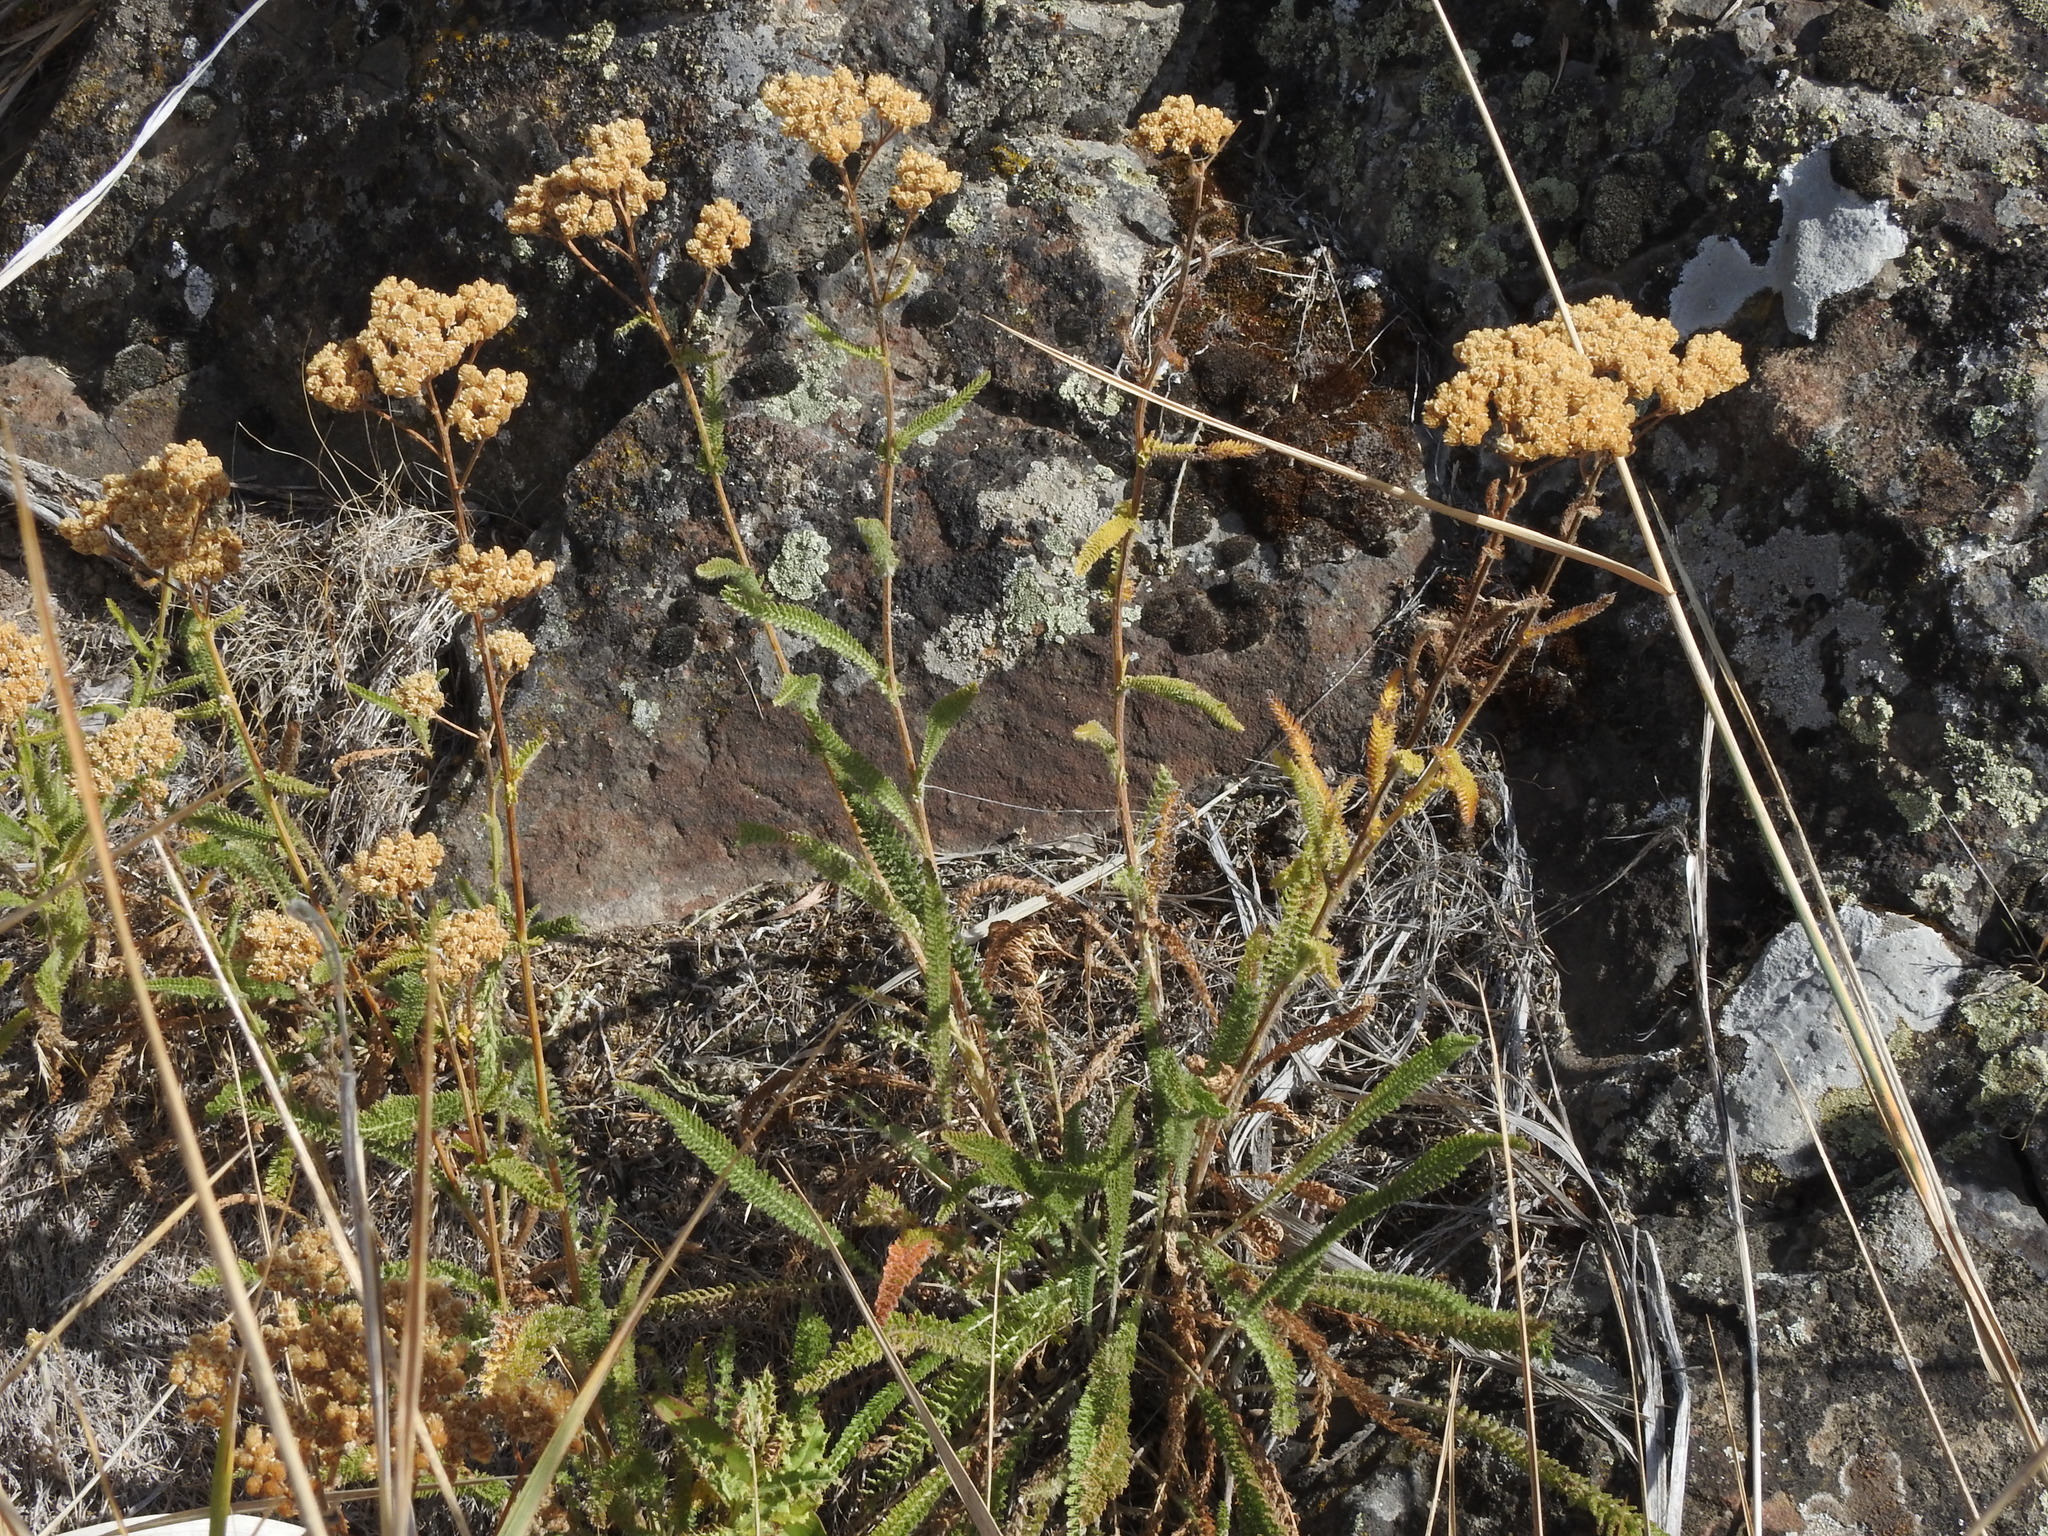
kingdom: Plantae
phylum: Tracheophyta
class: Magnoliopsida
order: Asterales
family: Asteraceae
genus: Achillea
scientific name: Achillea millefolium
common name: Yarrow
